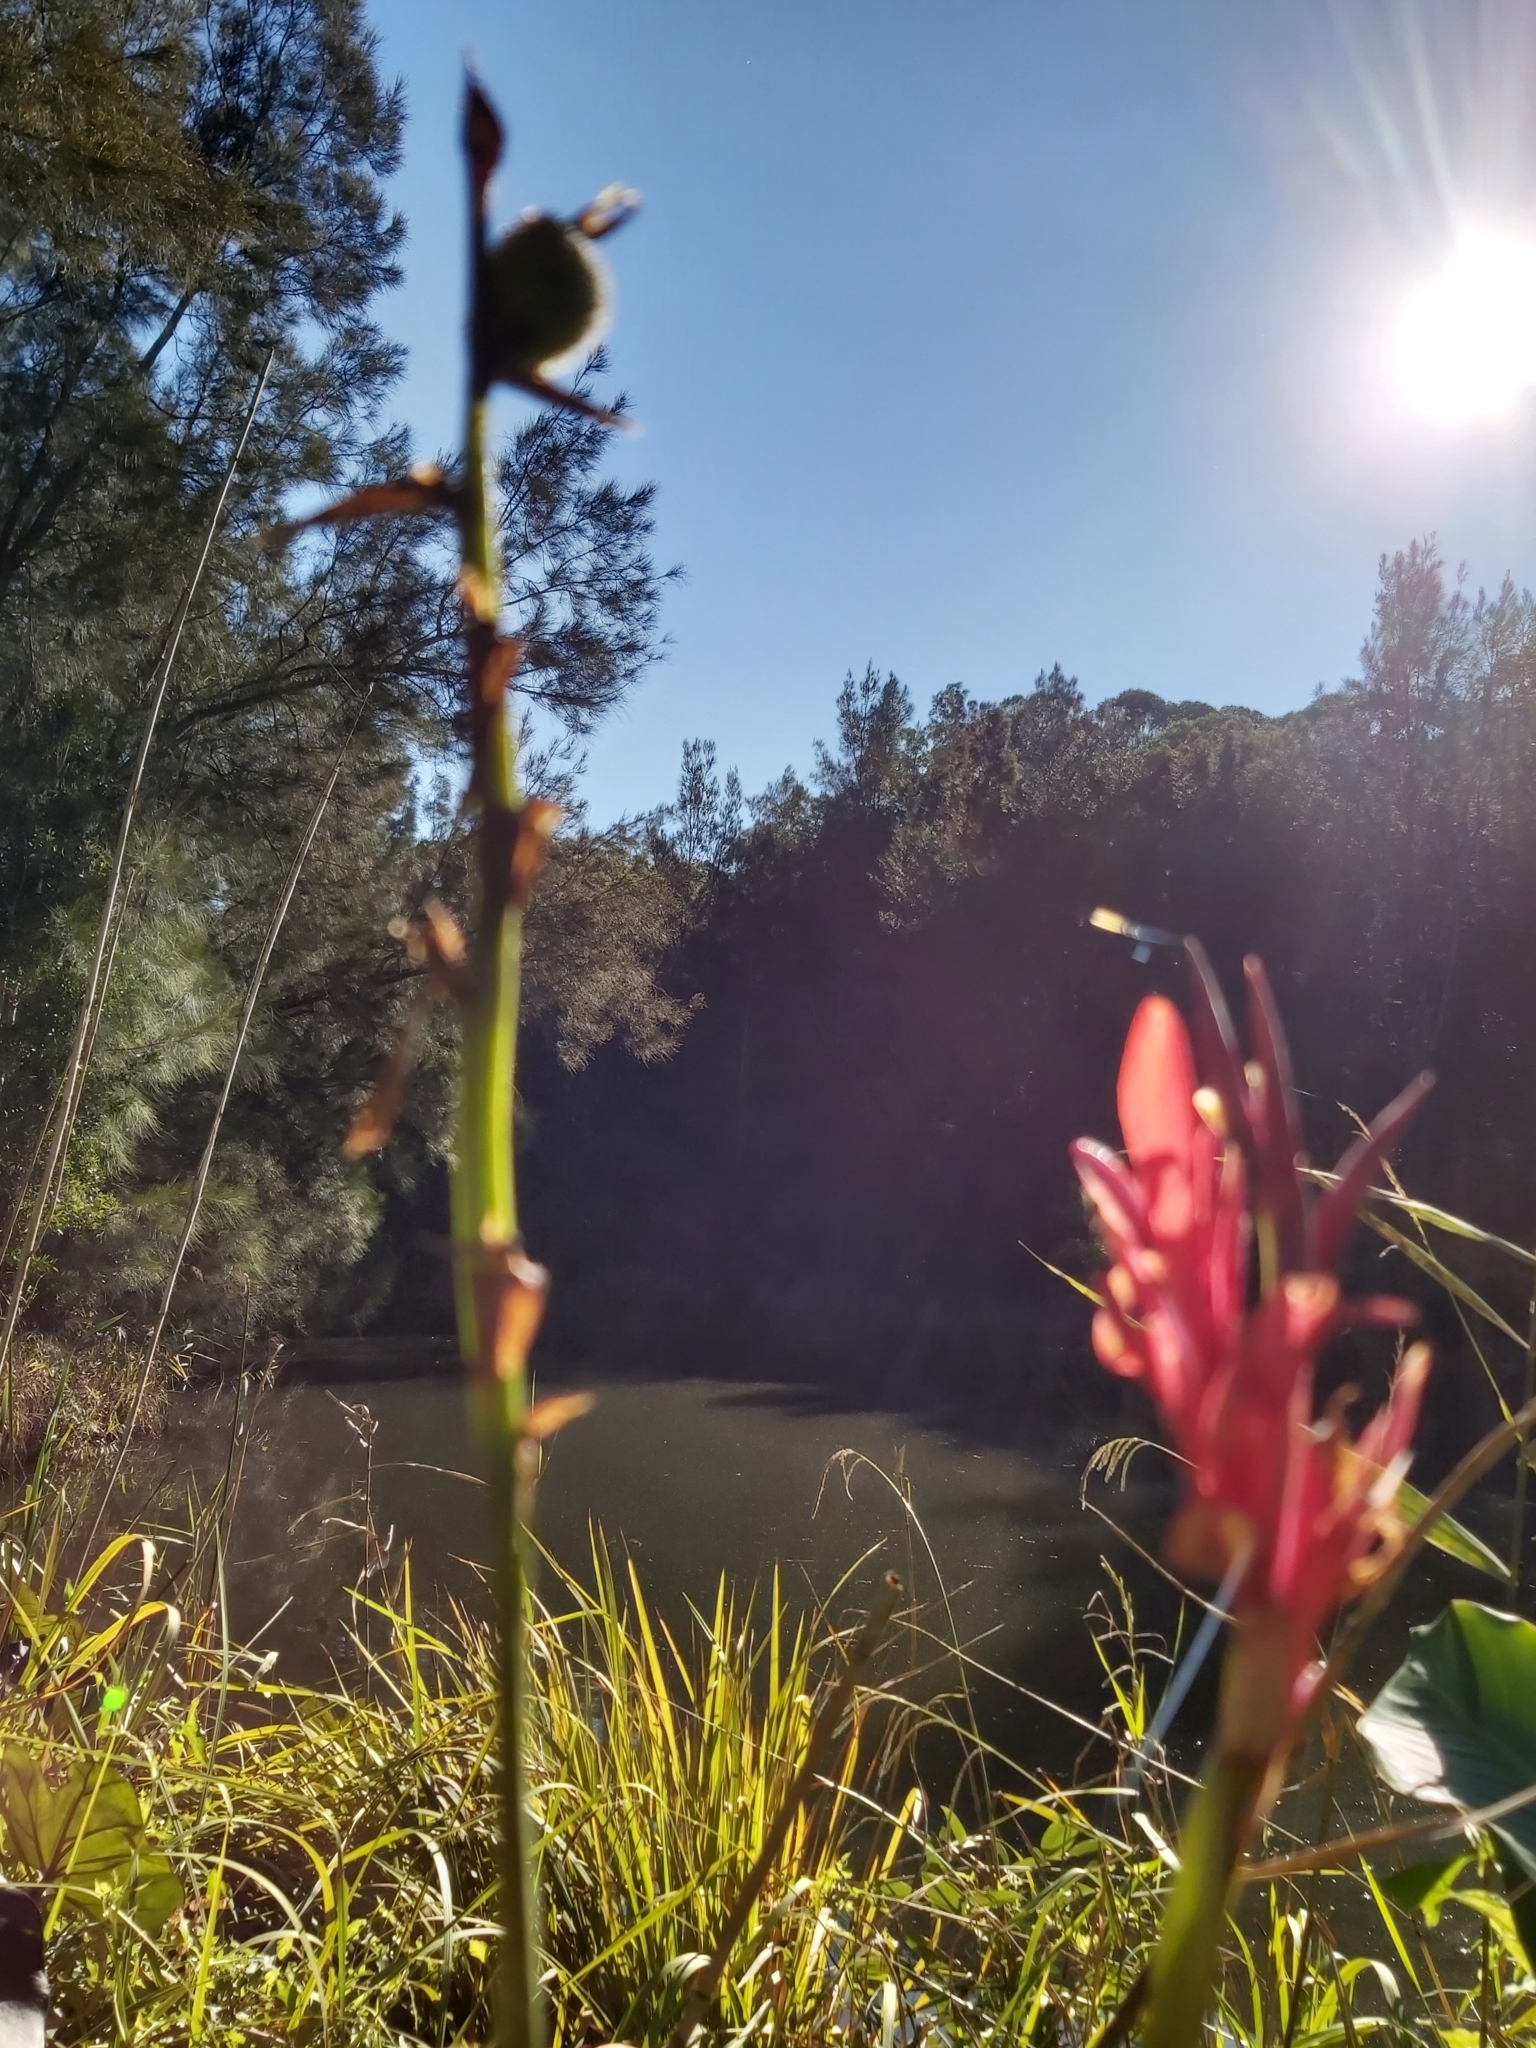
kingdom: Plantae
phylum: Tracheophyta
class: Liliopsida
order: Zingiberales
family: Cannaceae
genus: Canna
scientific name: Canna indica
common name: Indian shot
